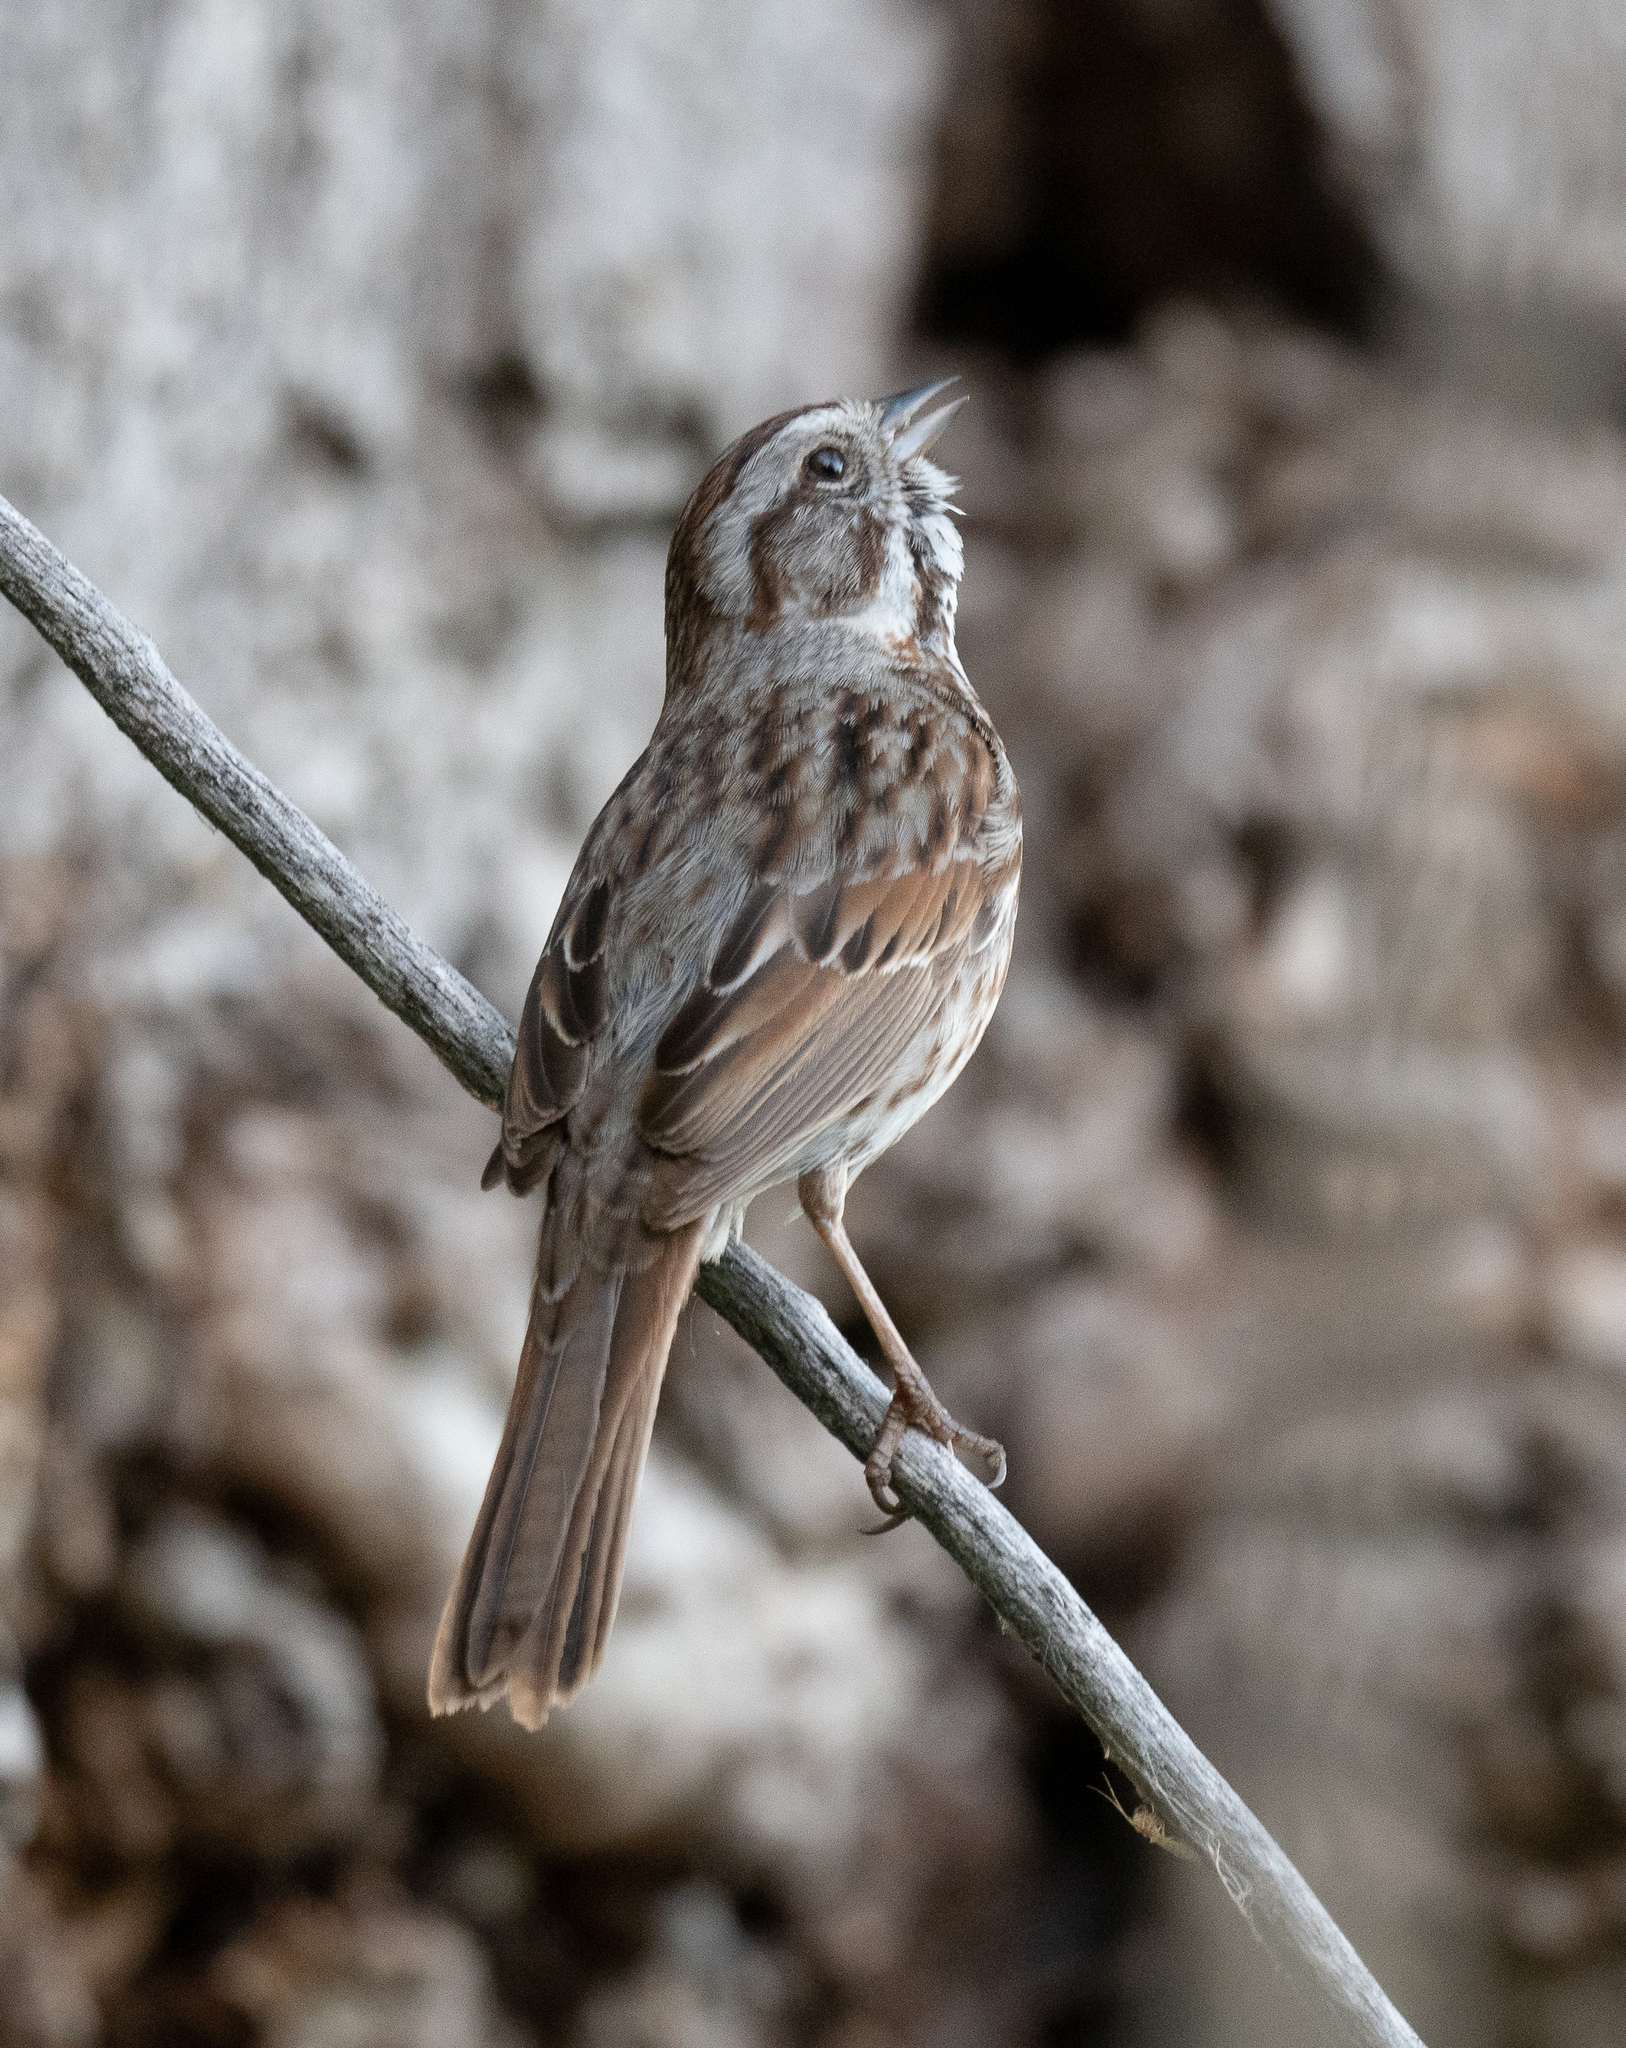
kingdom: Animalia
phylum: Chordata
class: Aves
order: Passeriformes
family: Passerellidae
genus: Melospiza
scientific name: Melospiza melodia
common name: Song sparrow
